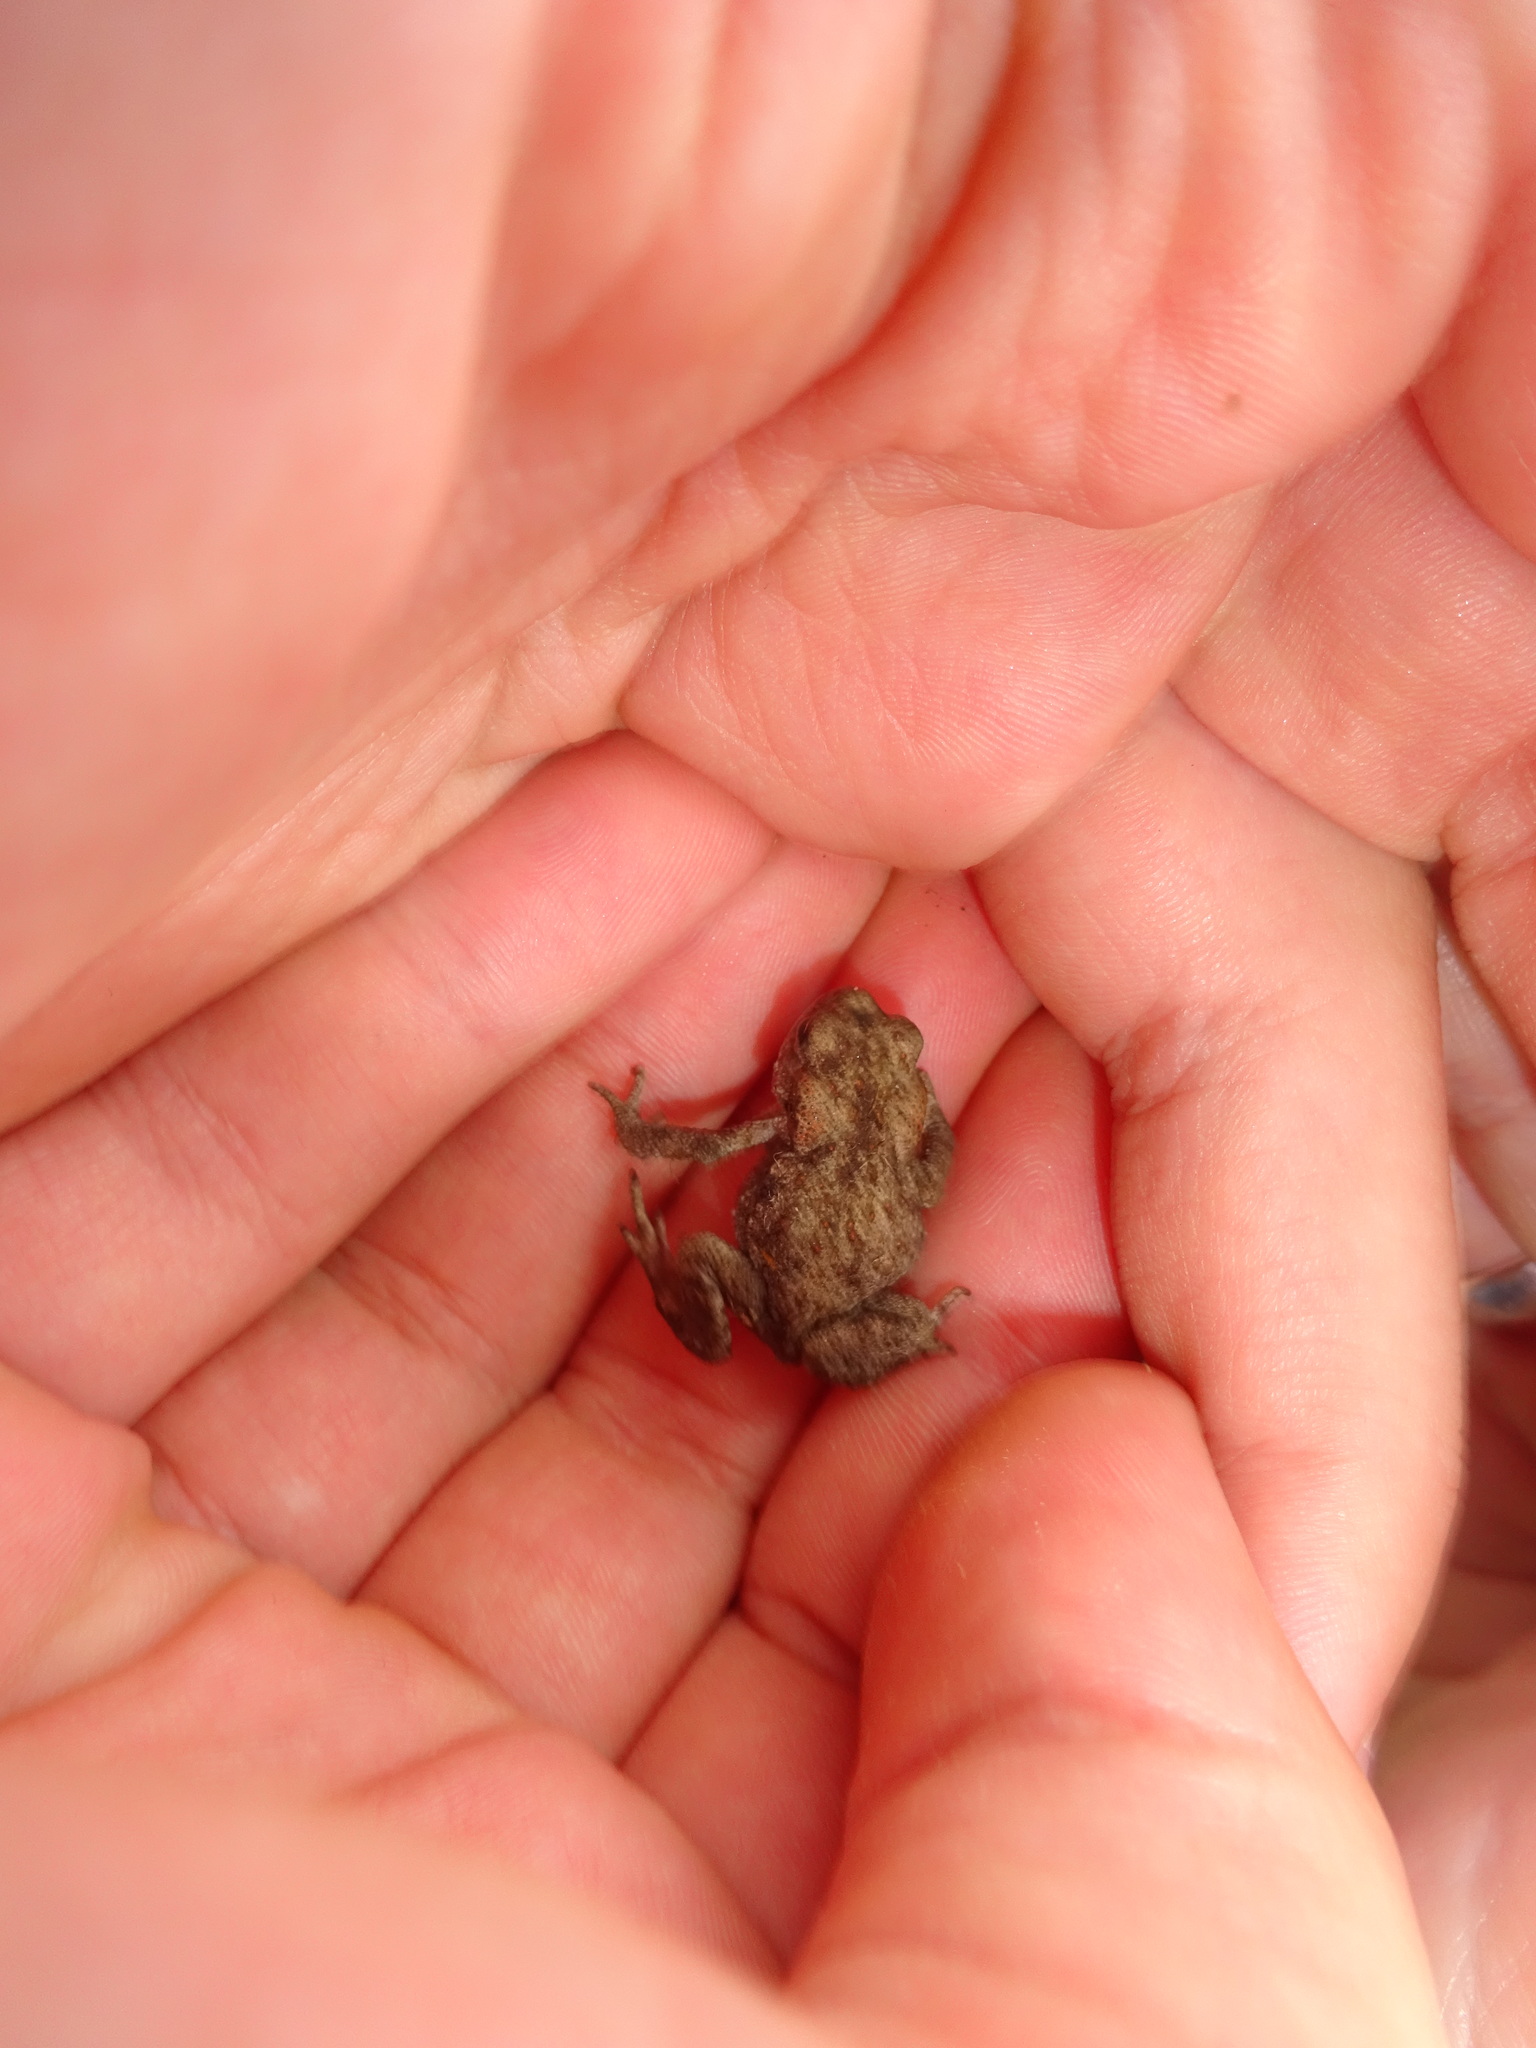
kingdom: Animalia
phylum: Chordata
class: Amphibia
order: Anura
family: Bufonidae
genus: Bufo
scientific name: Bufo bufo
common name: Common toad
